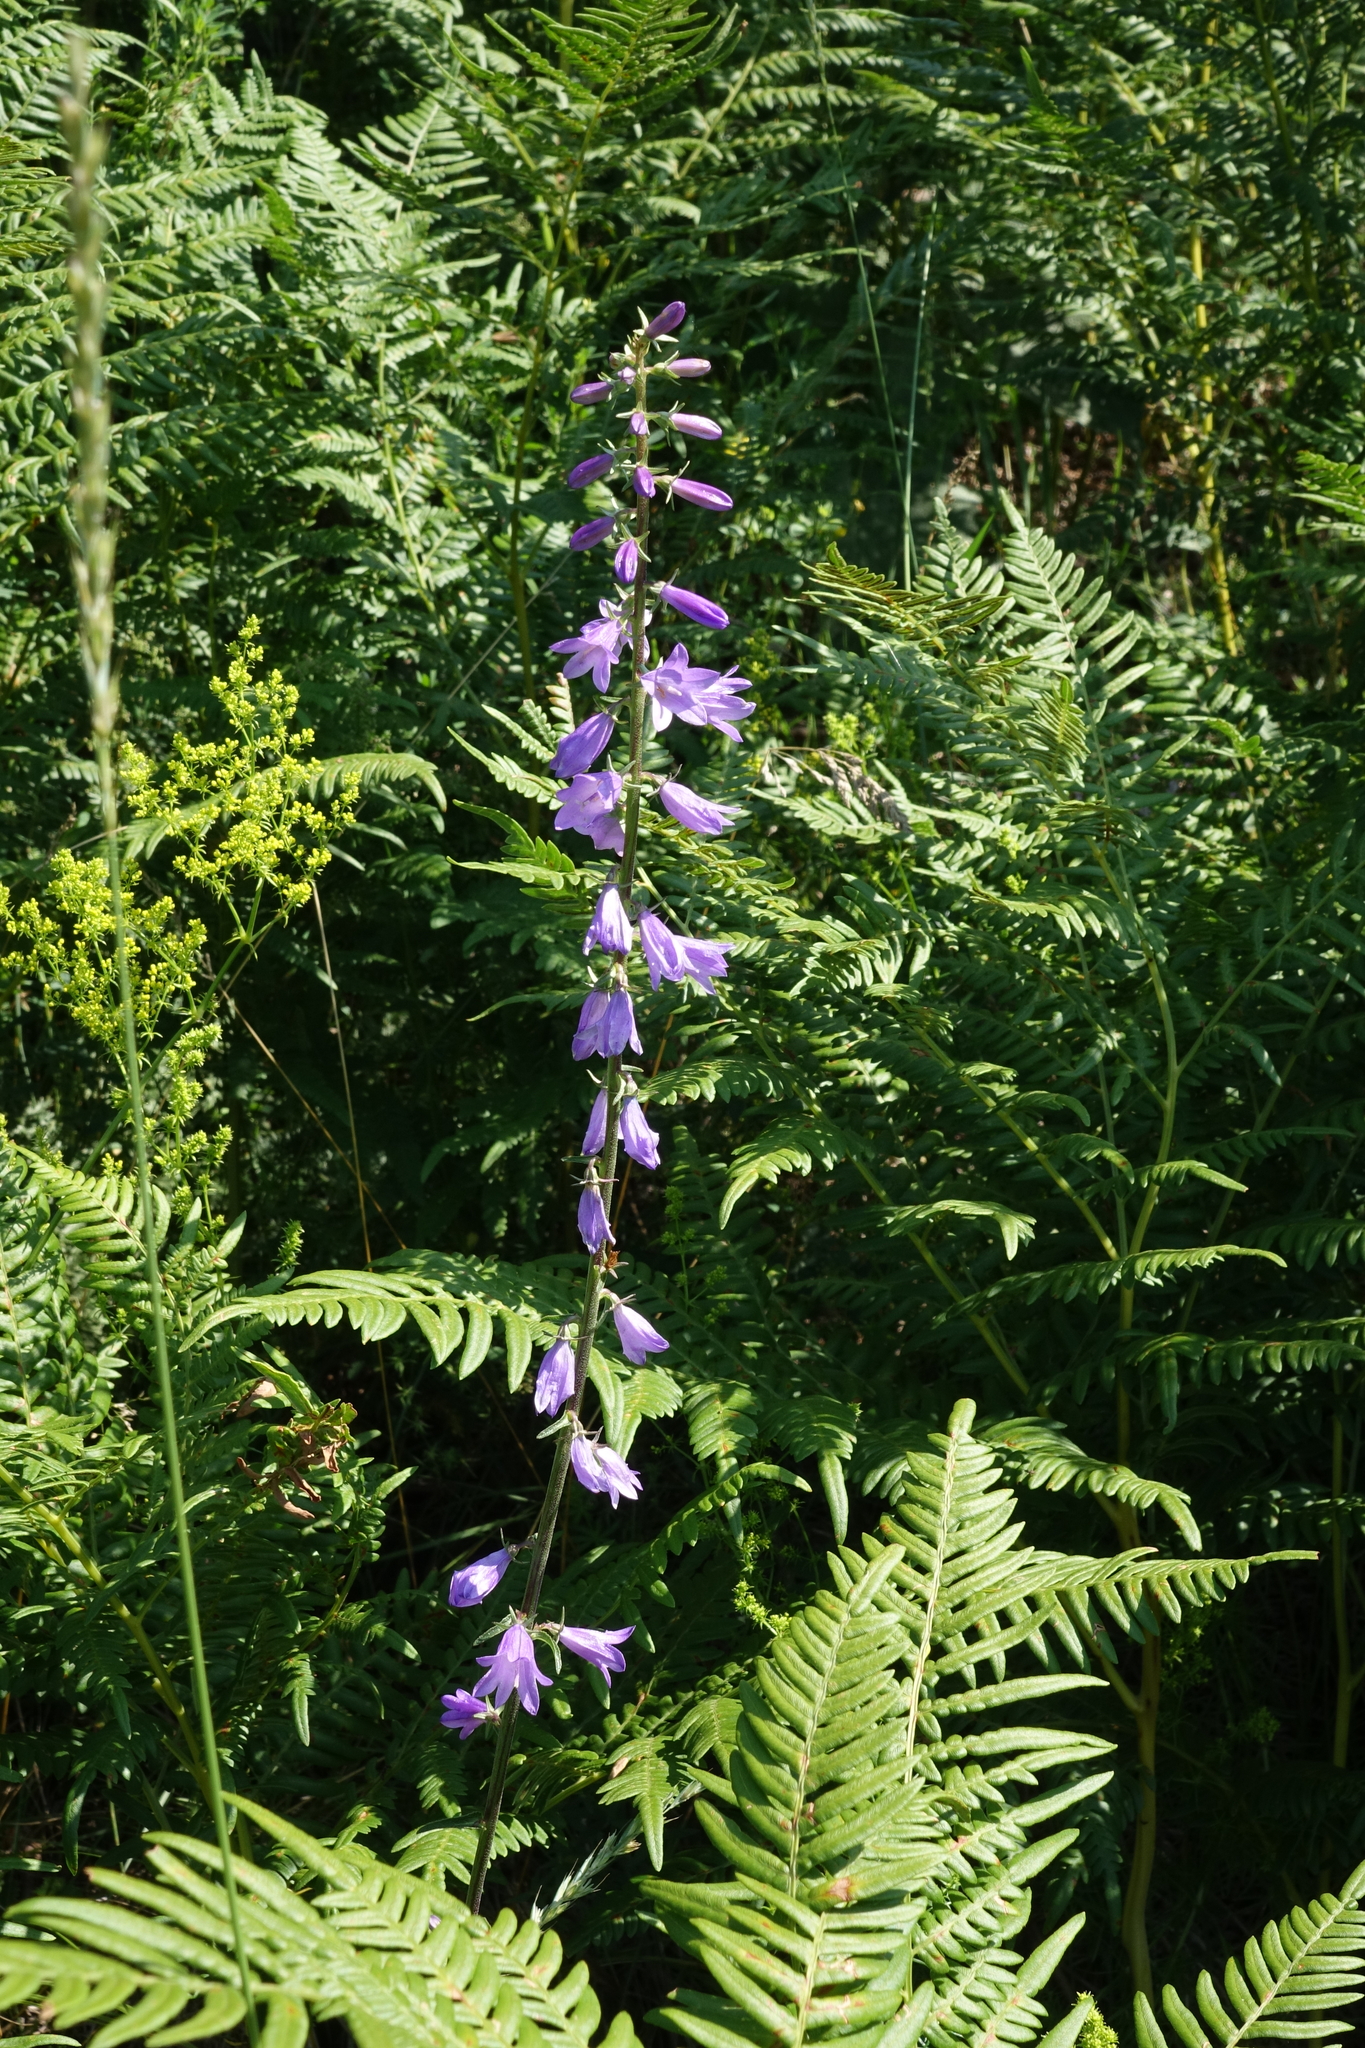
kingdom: Plantae
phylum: Tracheophyta
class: Magnoliopsida
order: Asterales
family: Campanulaceae
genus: Campanula
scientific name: Campanula rapunculoides
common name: Creeping bellflower
